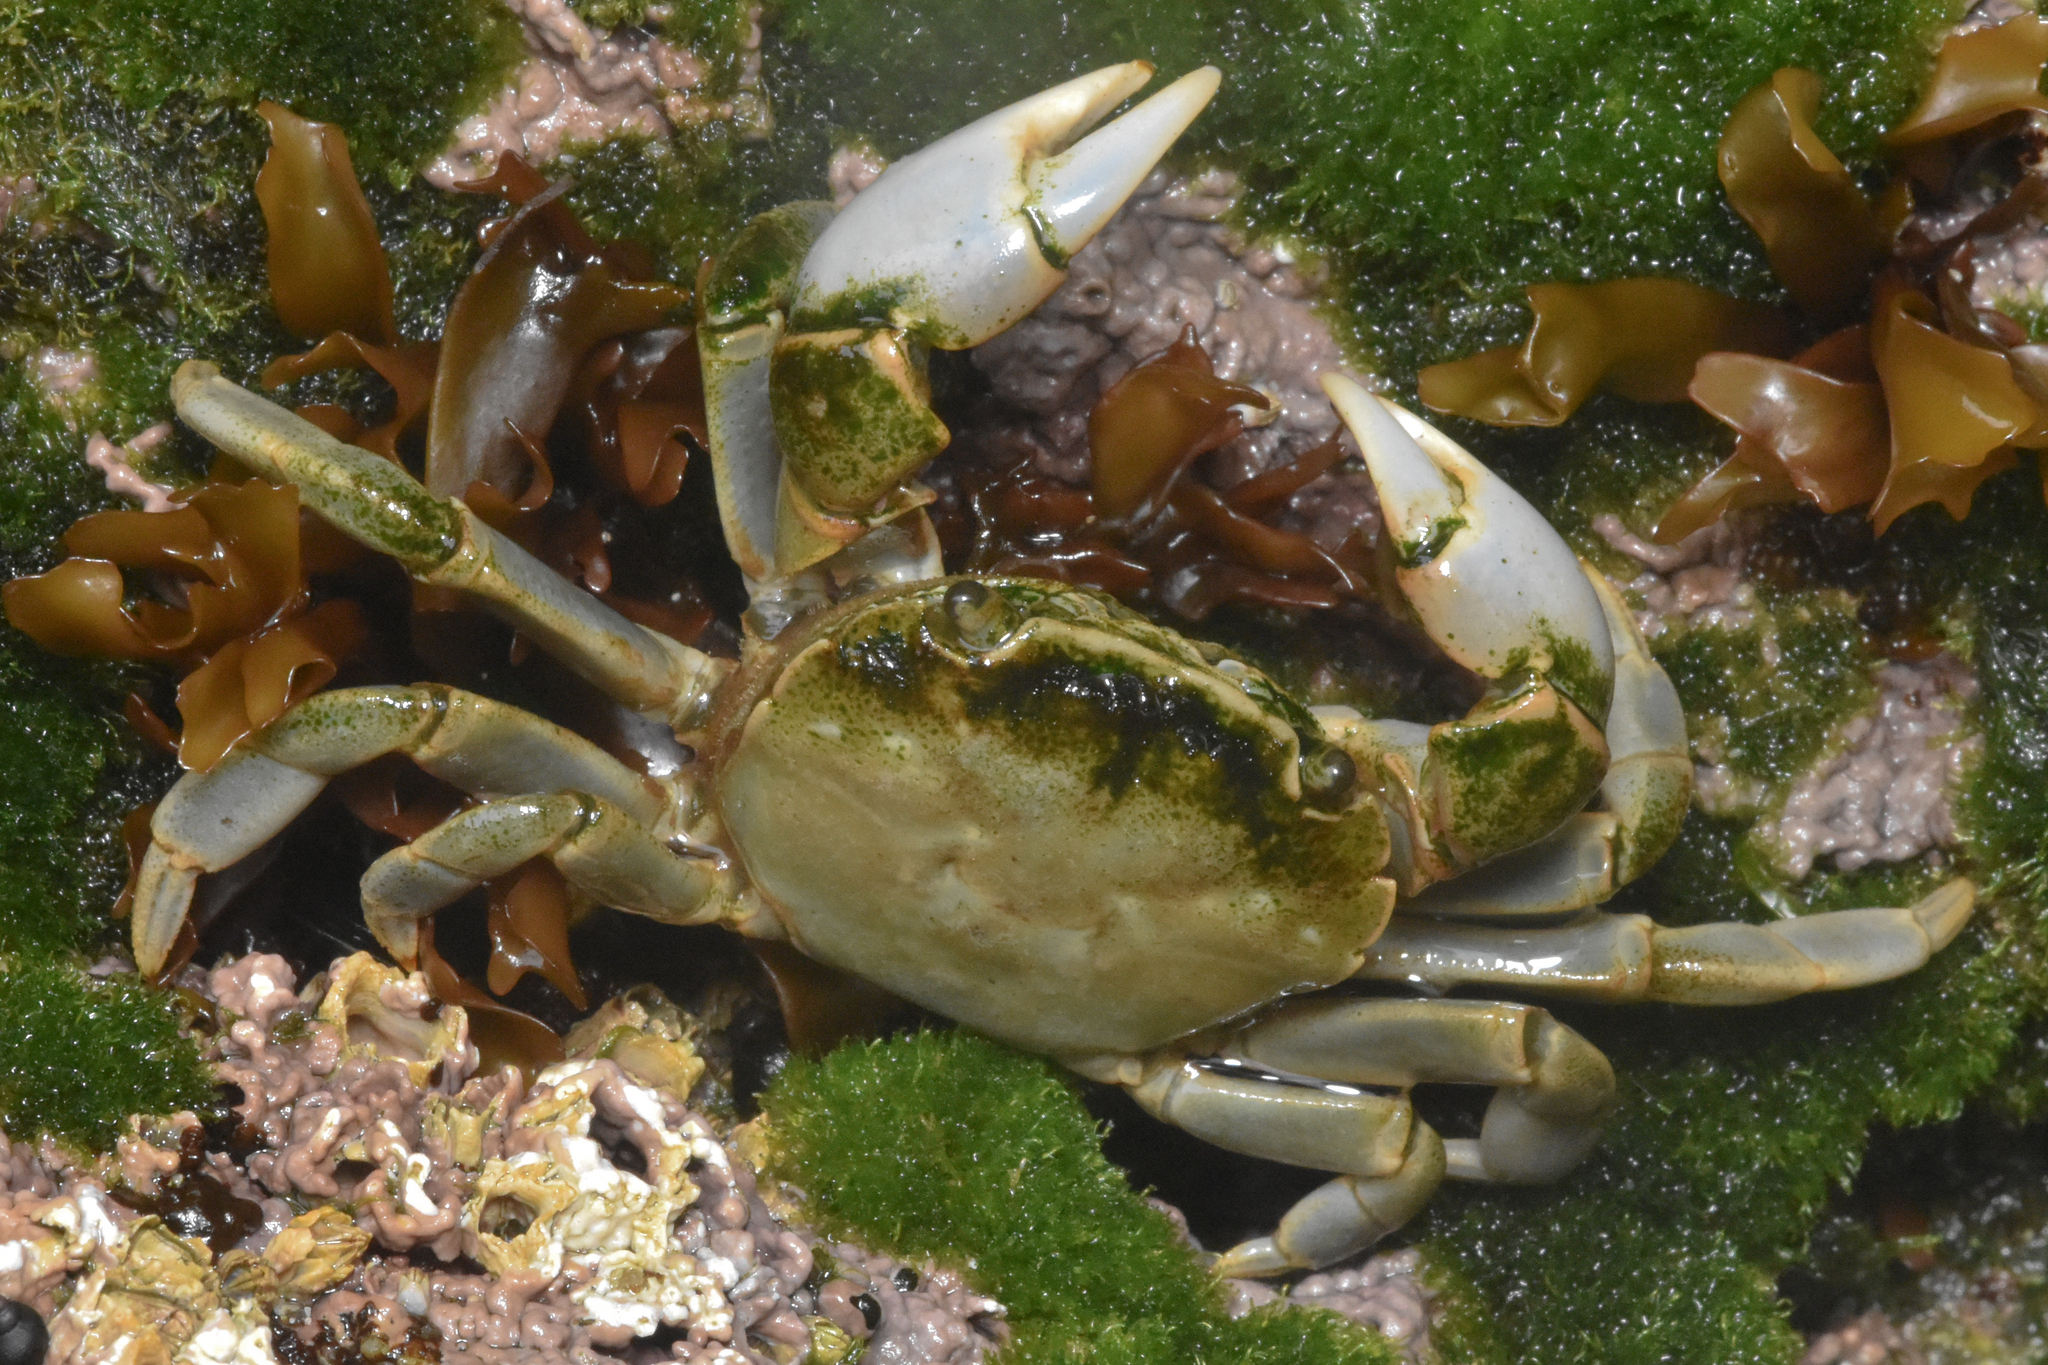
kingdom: Animalia
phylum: Arthropoda
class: Malacostraca
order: Decapoda
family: Varunidae
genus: Hemigrapsus
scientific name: Hemigrapsus nudus
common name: Purple shore crab
